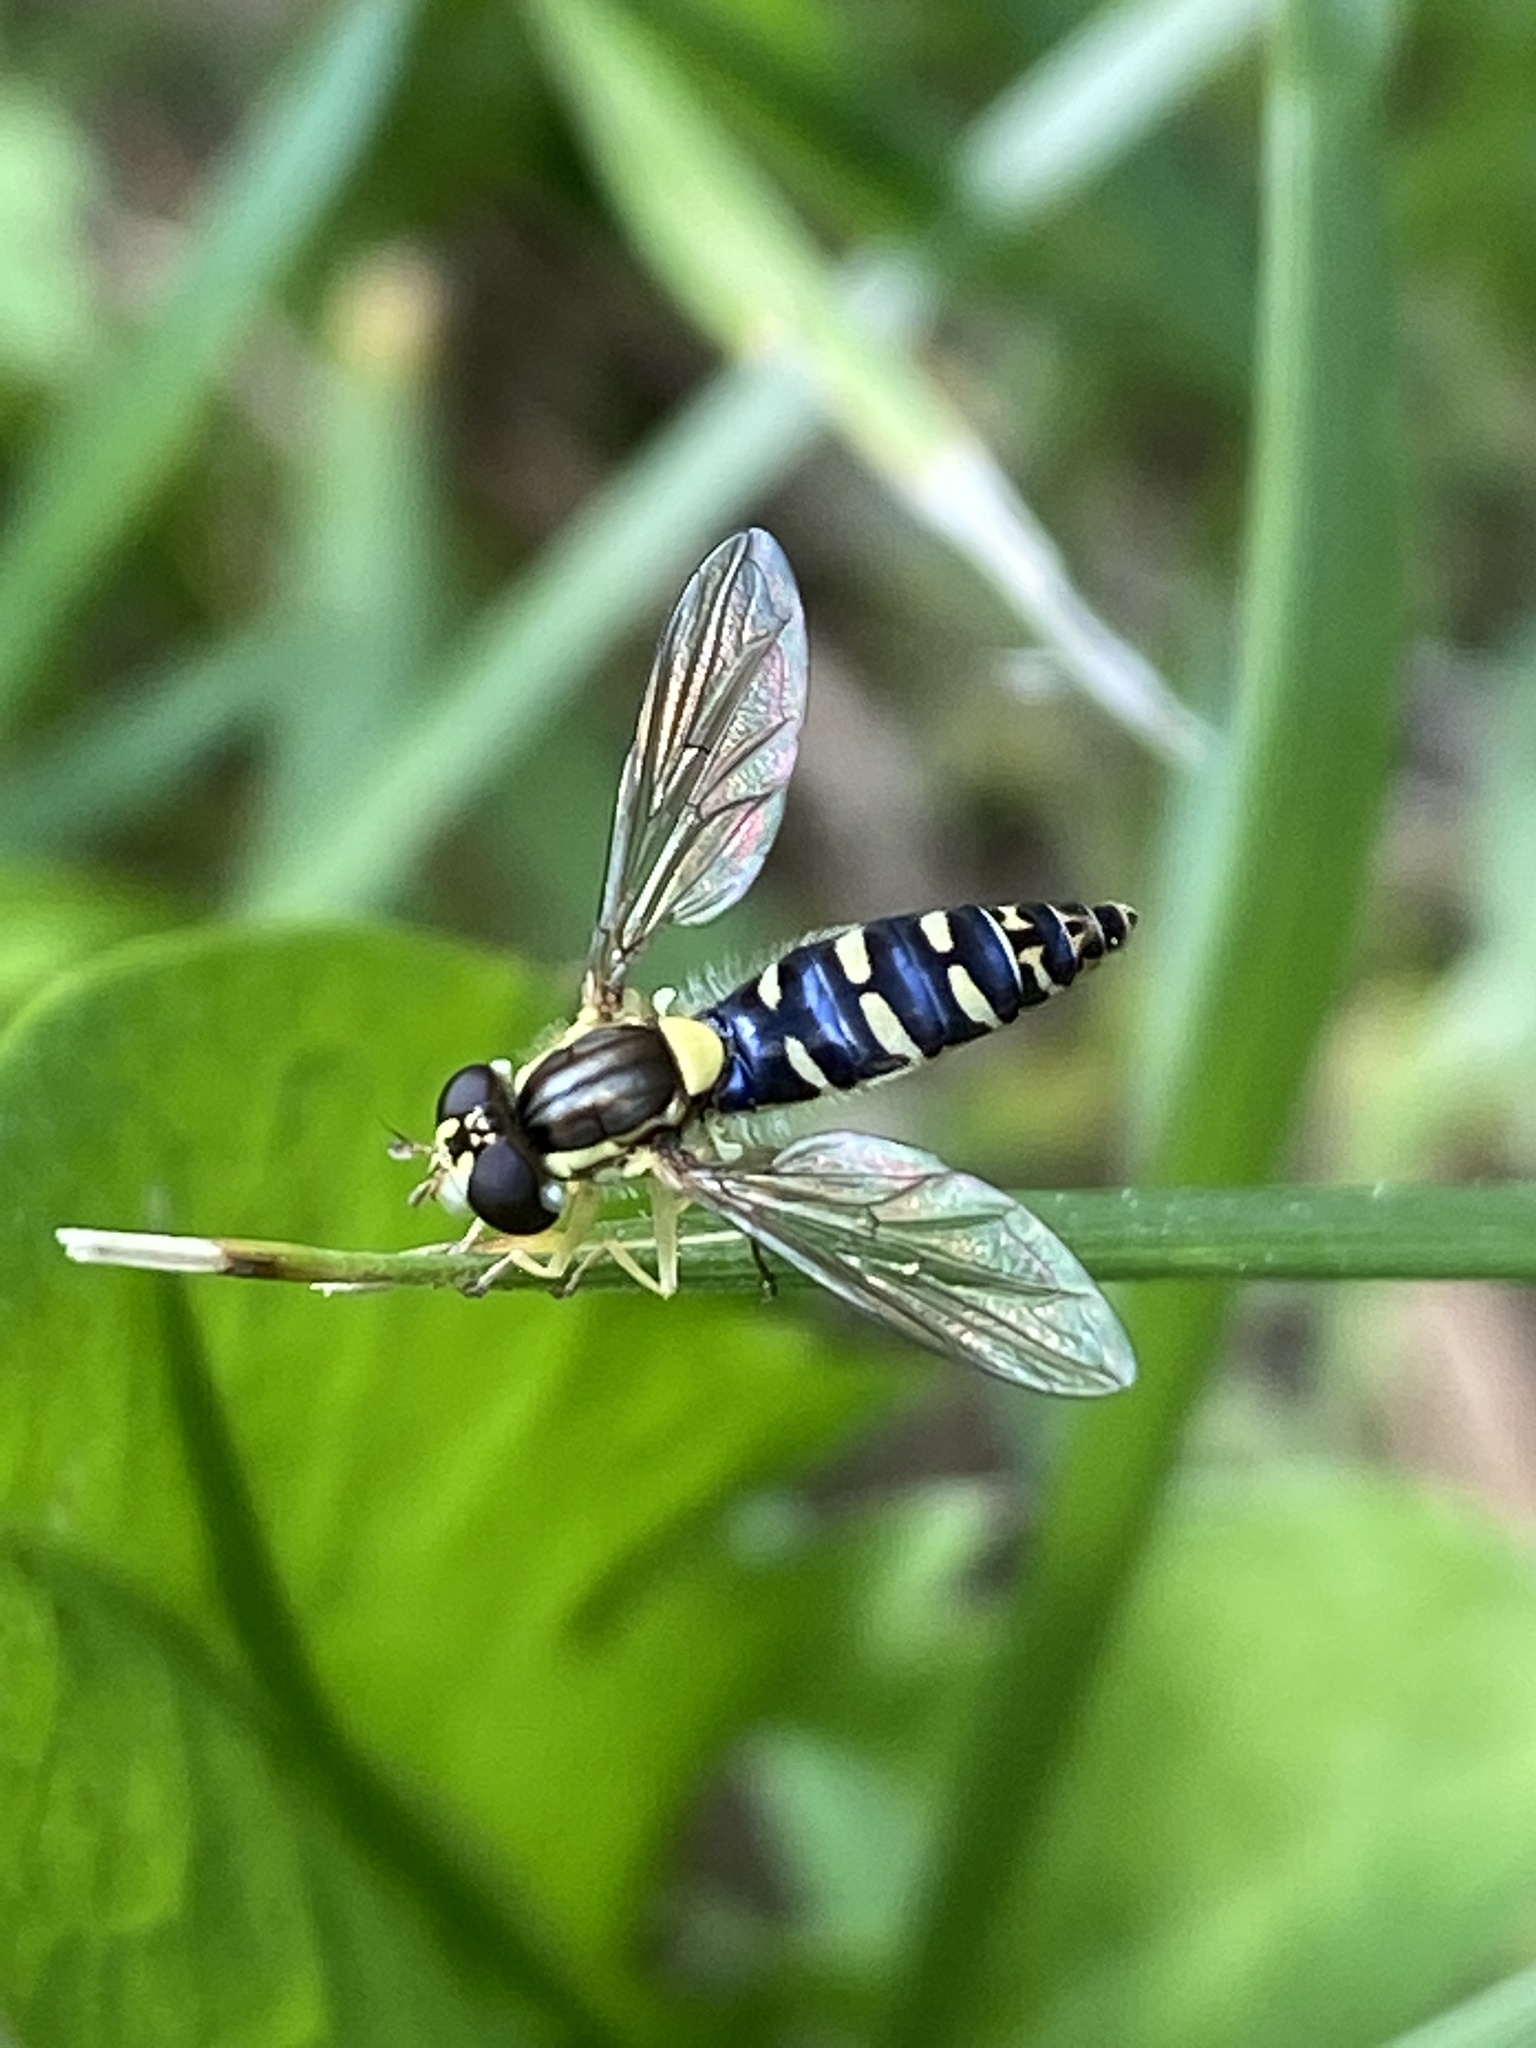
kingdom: Animalia
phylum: Arthropoda
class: Insecta
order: Diptera
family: Syrphidae
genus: Sphaerophoria
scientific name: Sphaerophoria
